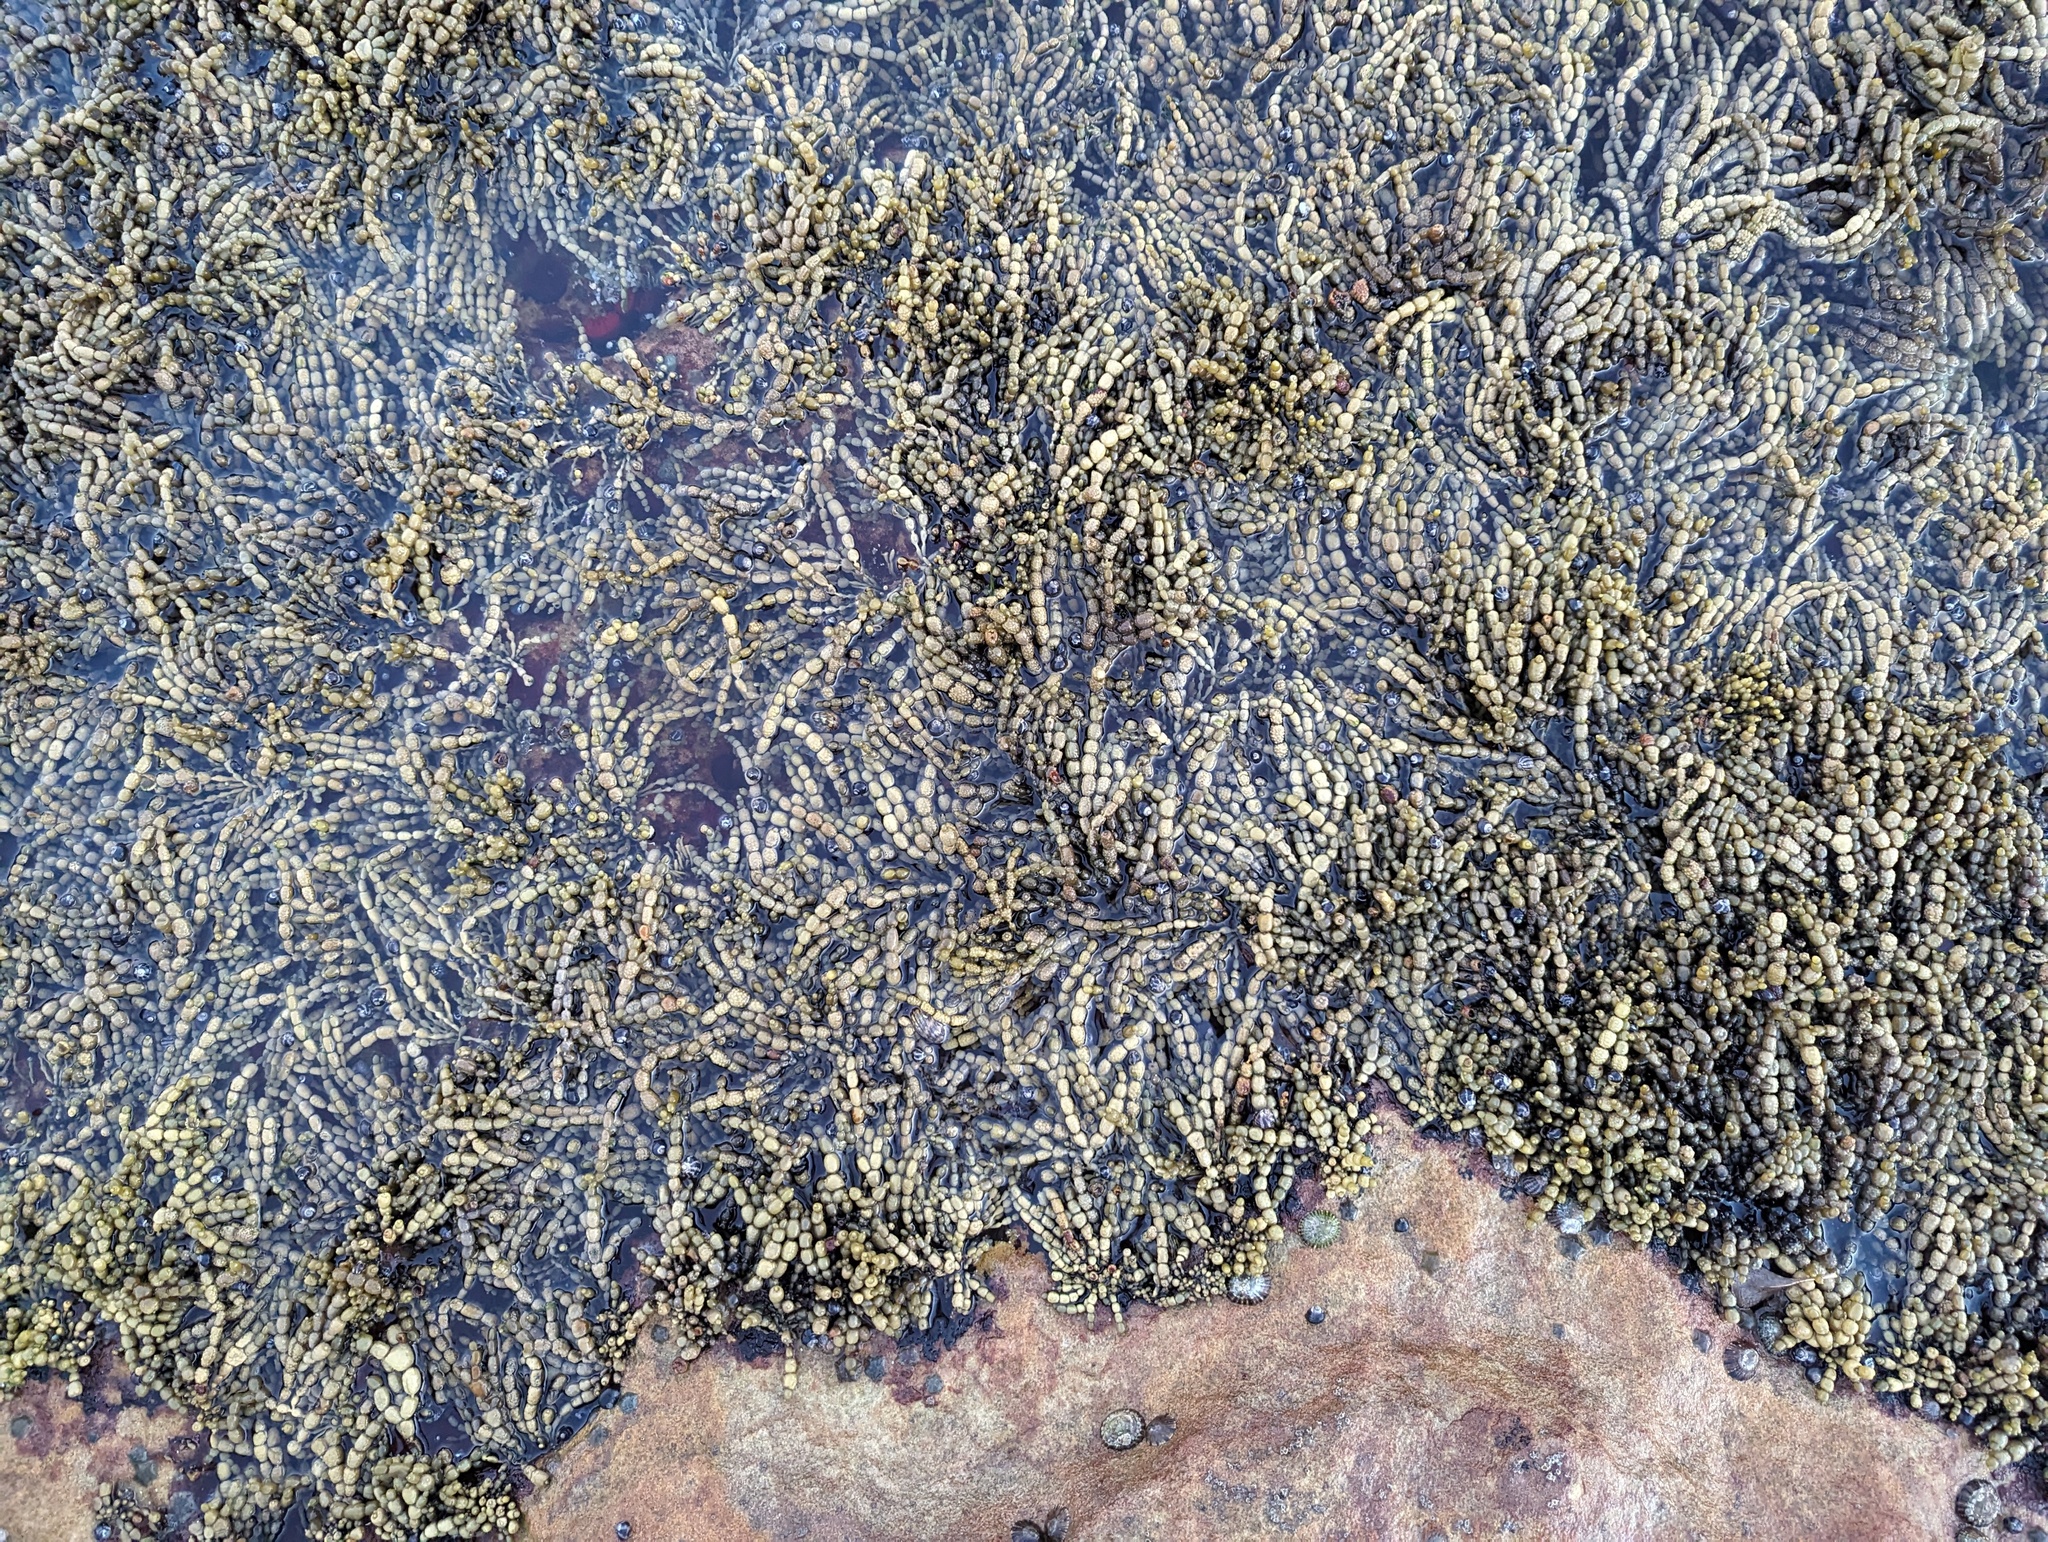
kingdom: Chromista
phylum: Ochrophyta
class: Phaeophyceae
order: Fucales
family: Hormosiraceae
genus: Hormosira
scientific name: Hormosira banksii
